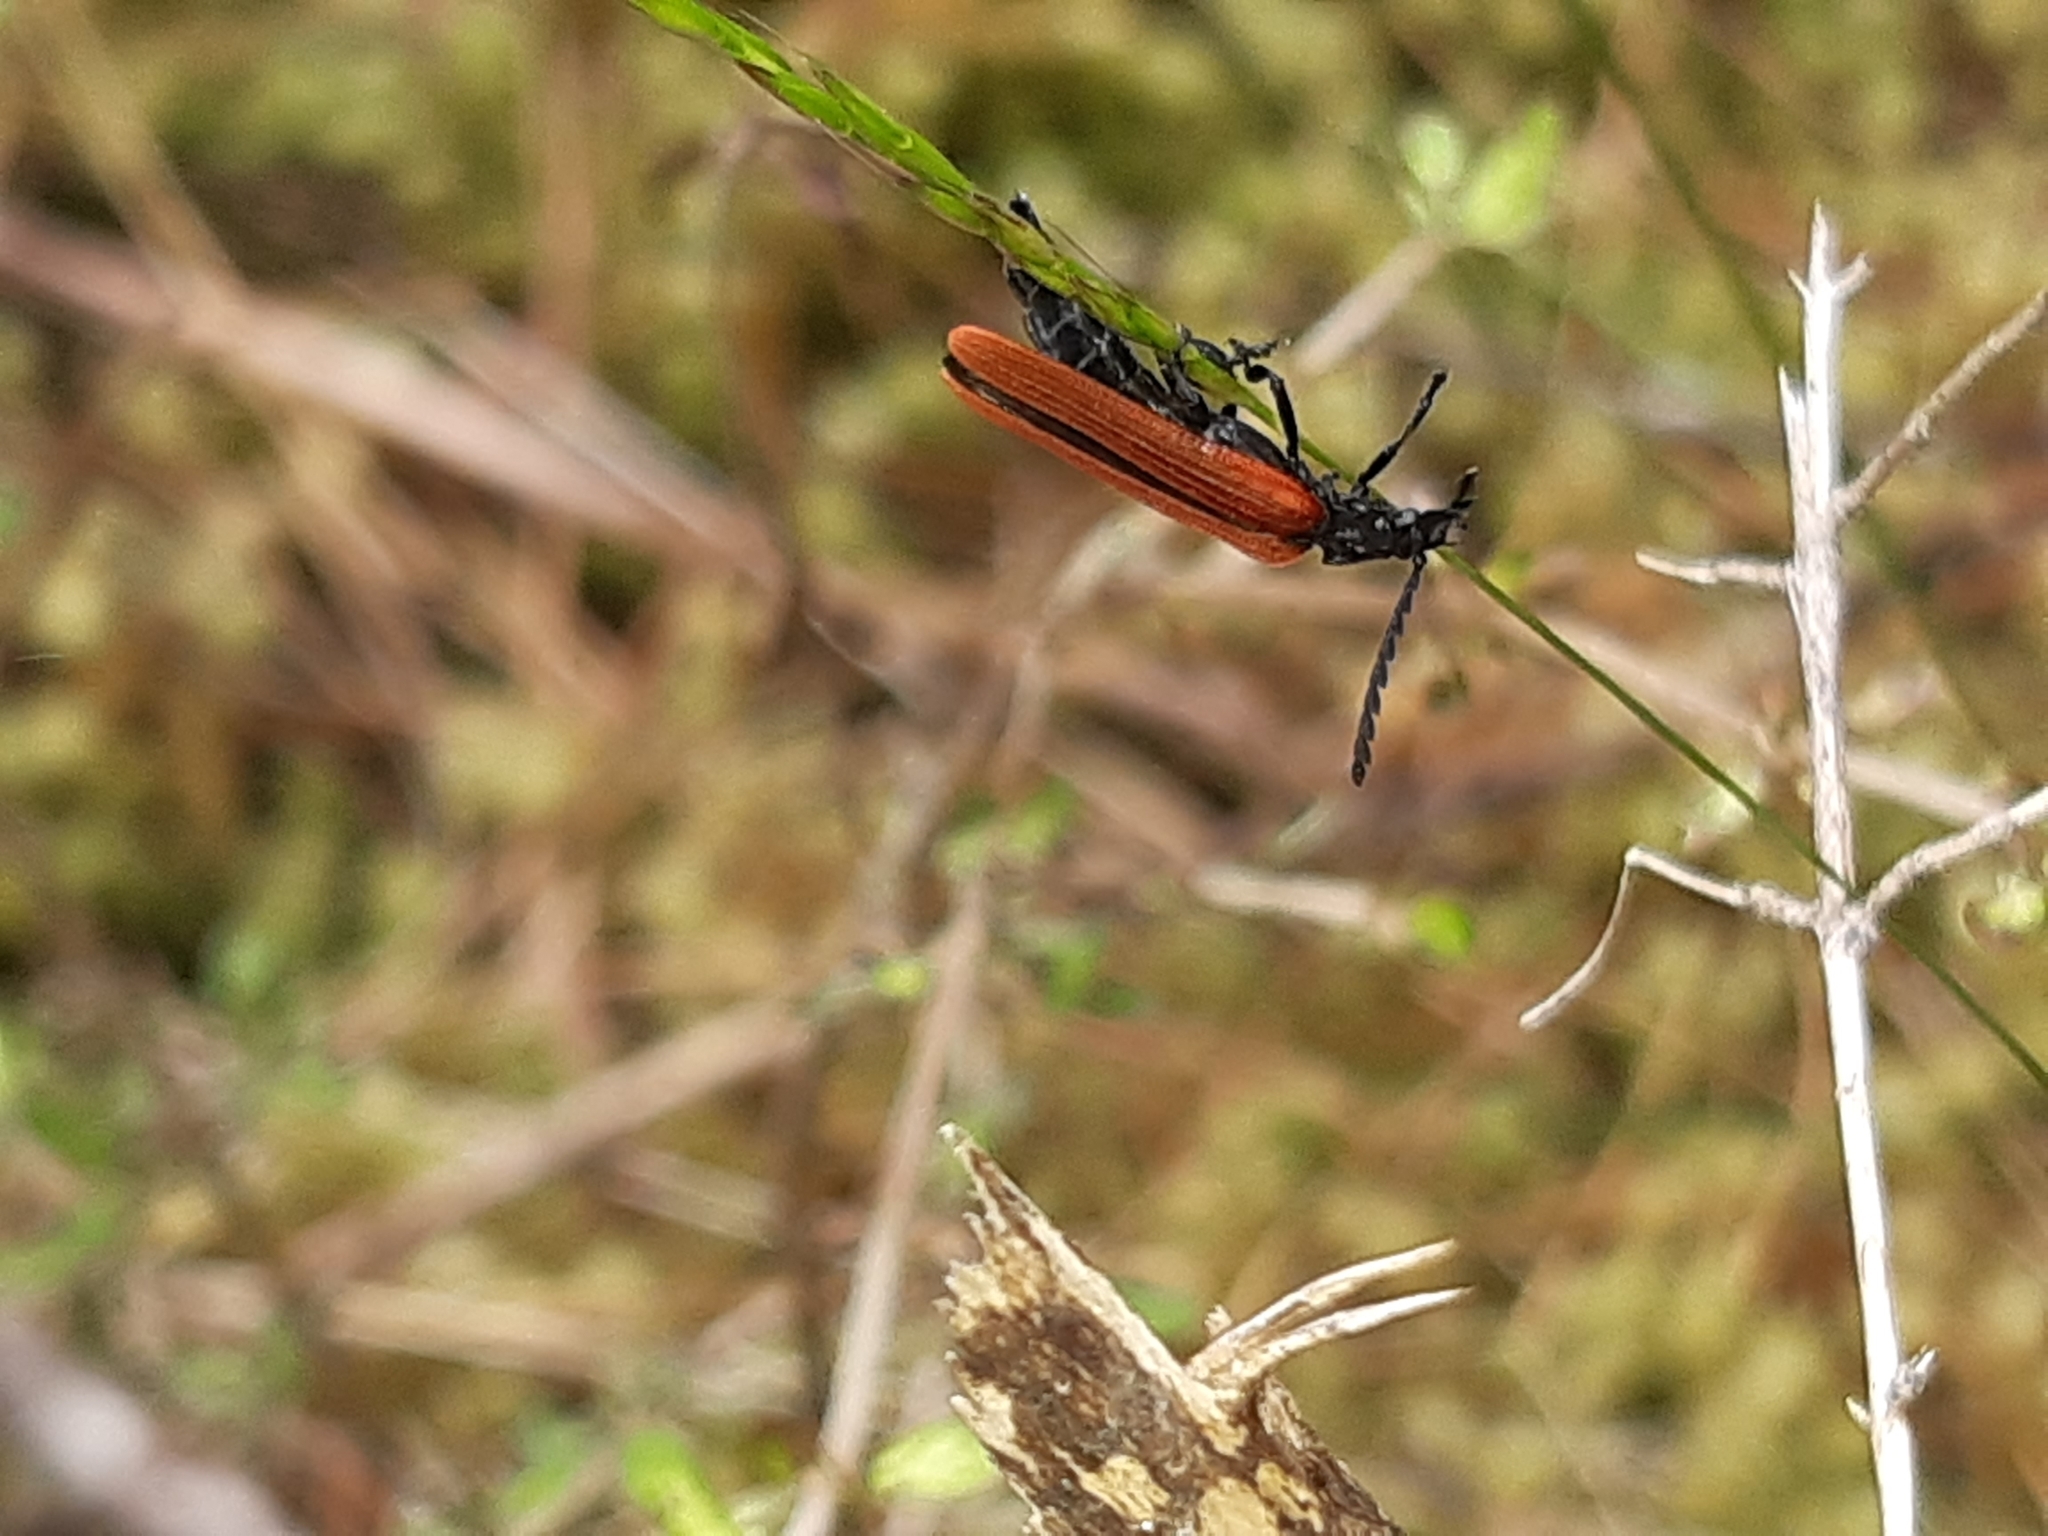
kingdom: Animalia
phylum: Arthropoda
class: Insecta
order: Coleoptera
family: Lycidae
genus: Porrostoma
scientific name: Porrostoma rufipenne
